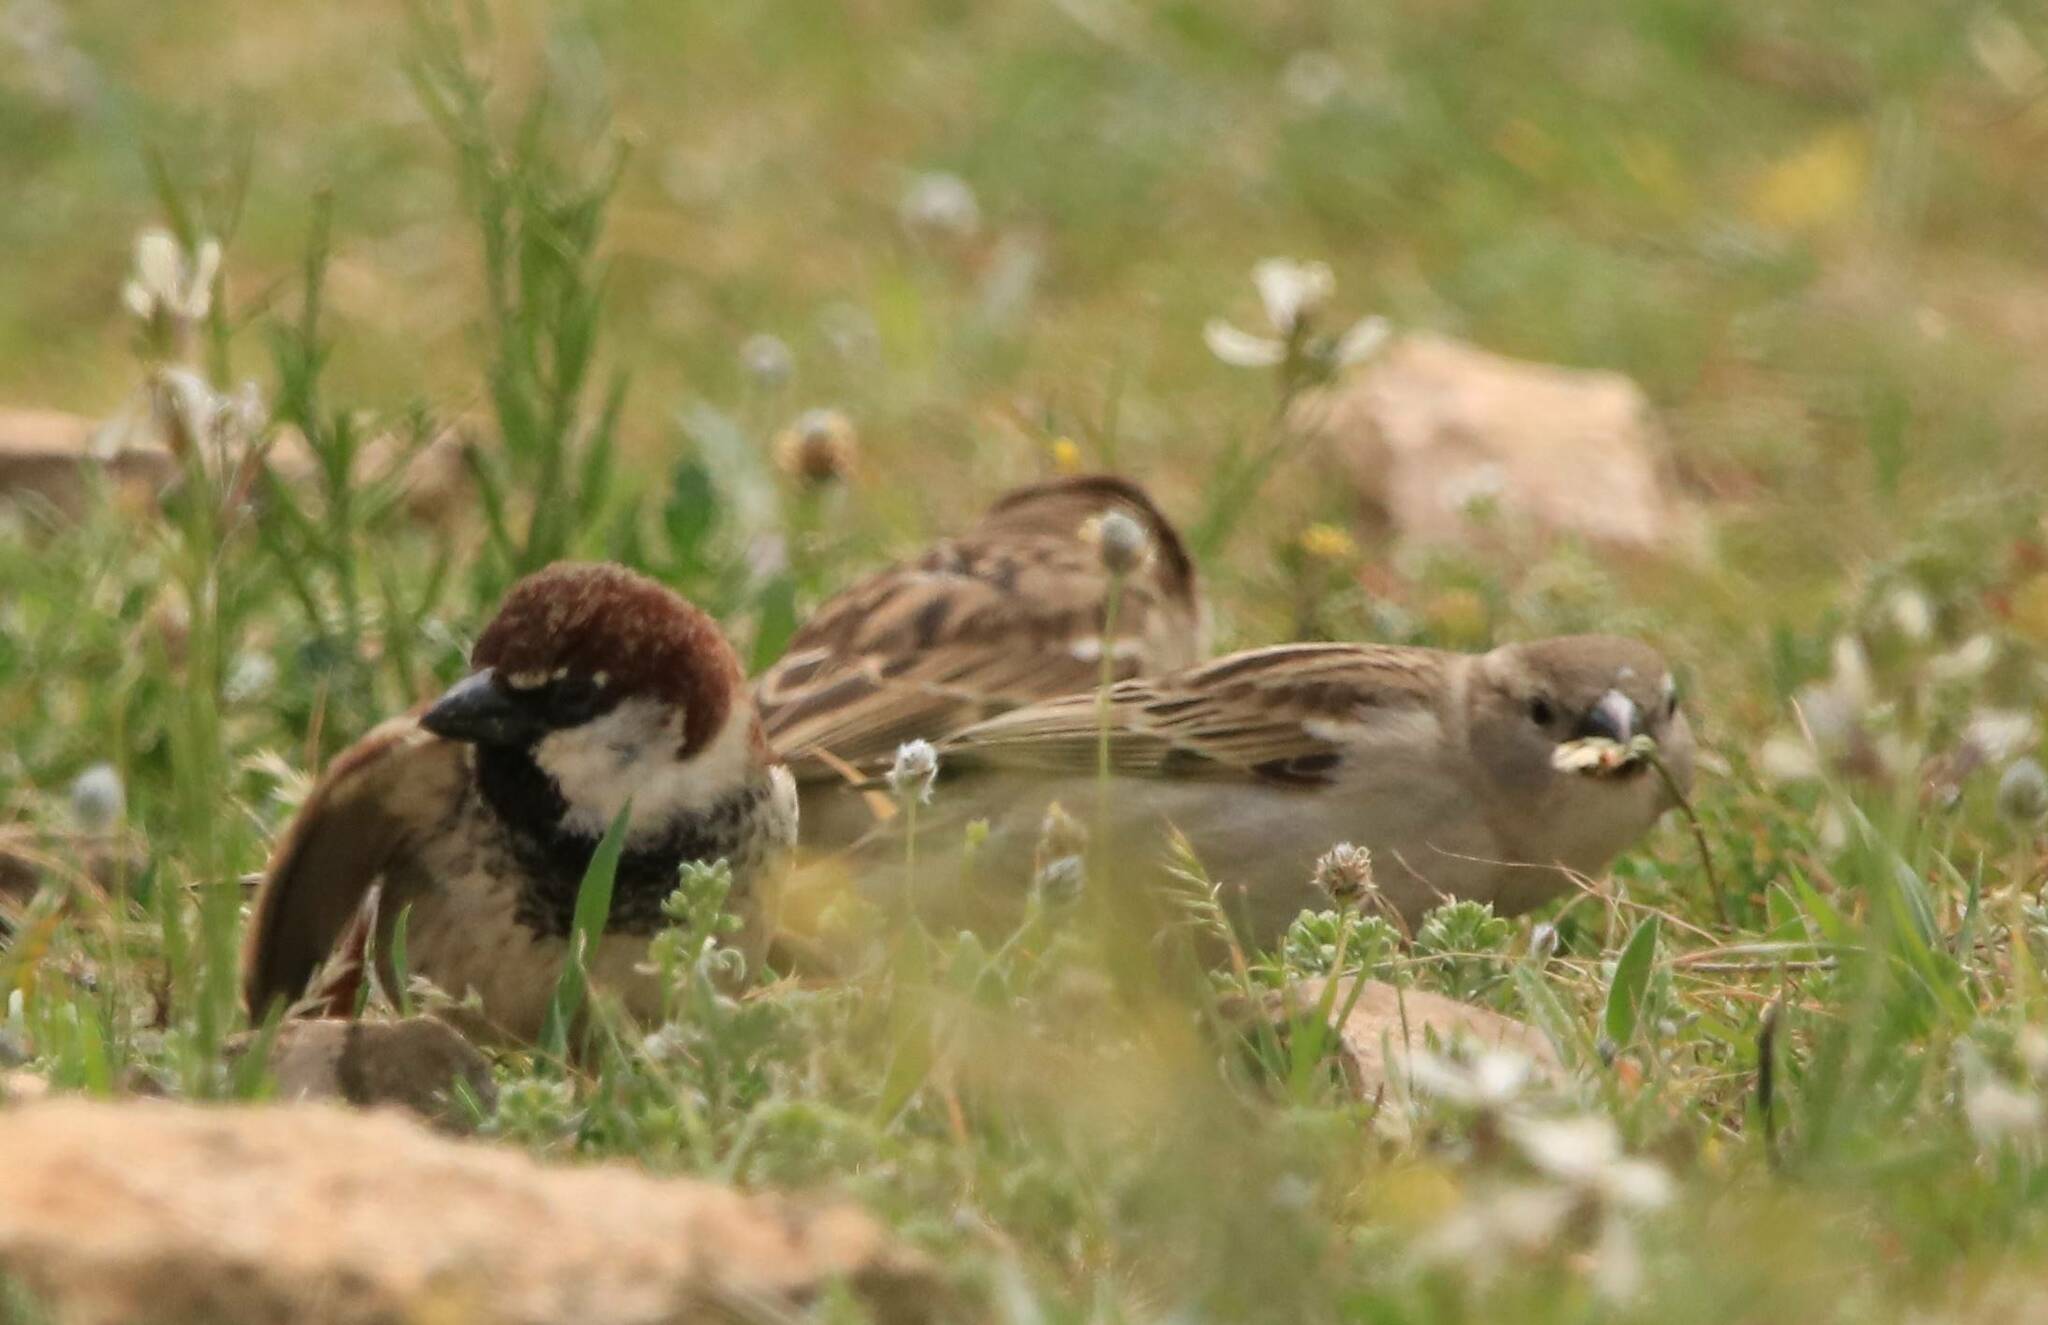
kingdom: Animalia
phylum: Chordata
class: Aves
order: Passeriformes
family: Passeridae
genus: Passer
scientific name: Passer domesticus
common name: House sparrow
